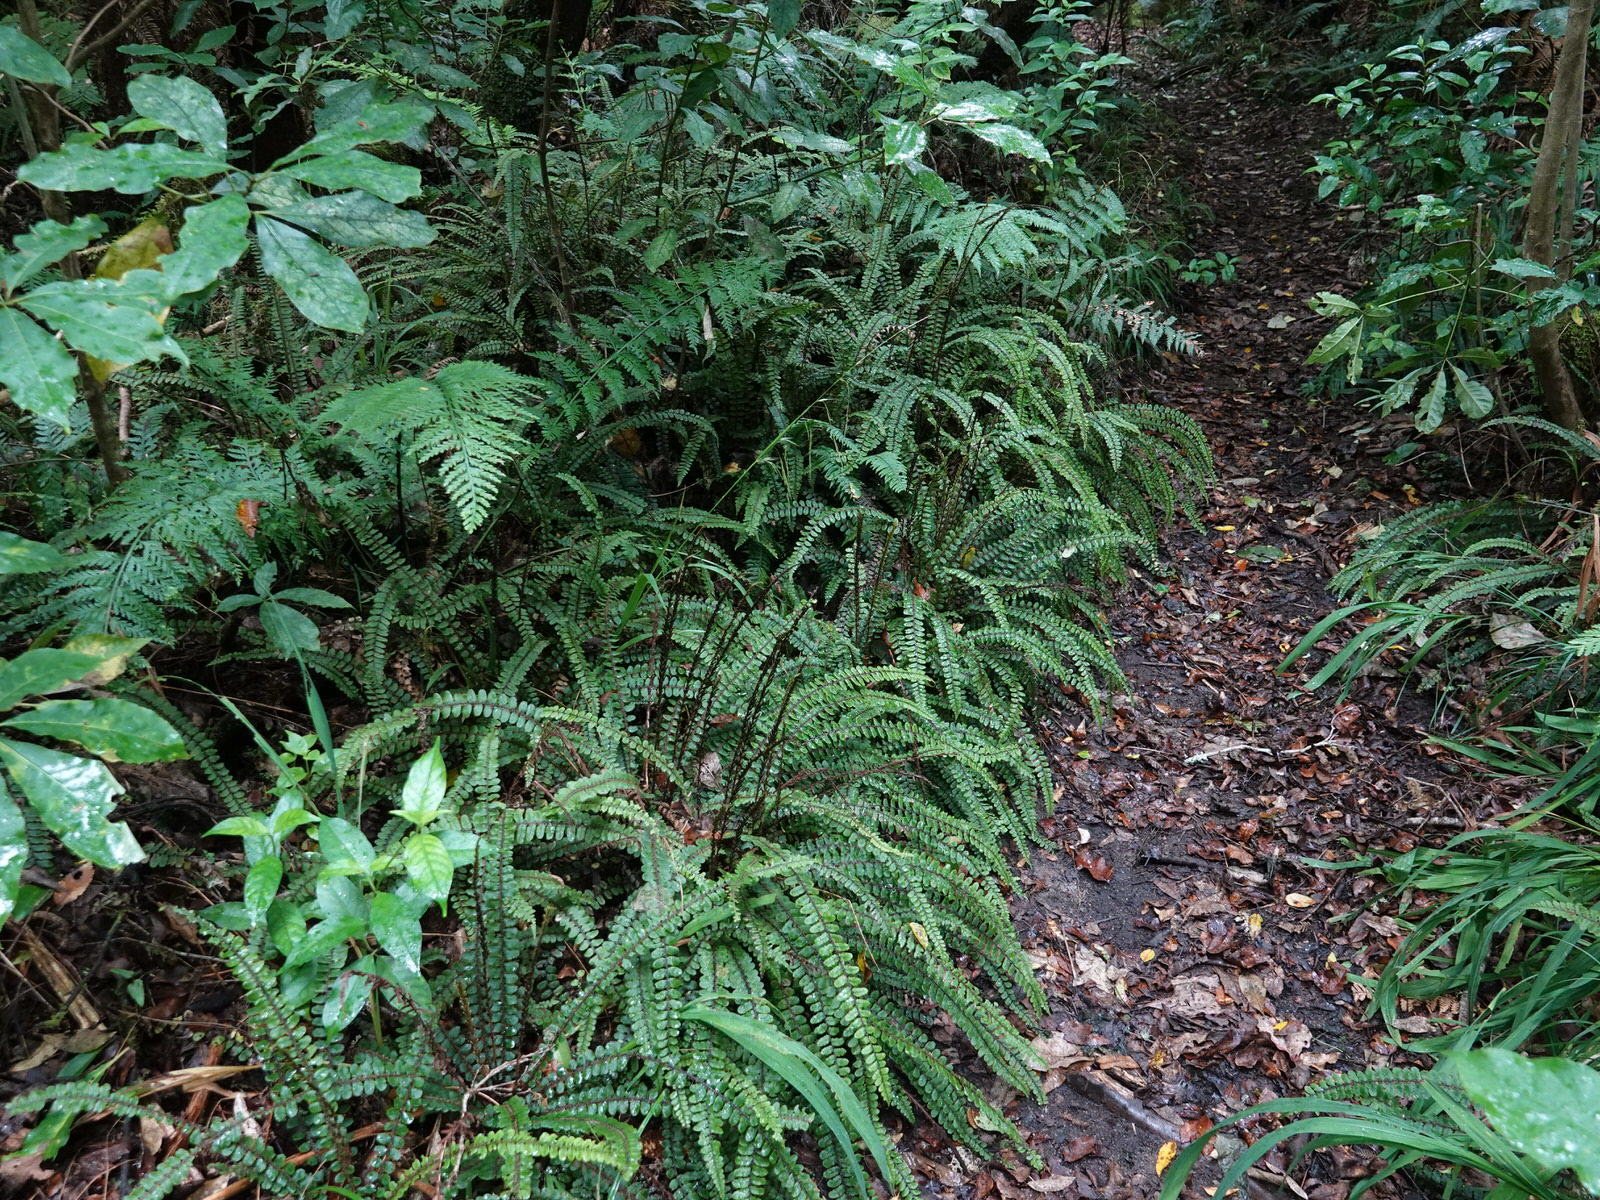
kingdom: Plantae
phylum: Tracheophyta
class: Polypodiopsida
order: Polypodiales
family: Blechnaceae
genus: Cranfillia
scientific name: Cranfillia fluviatilis
